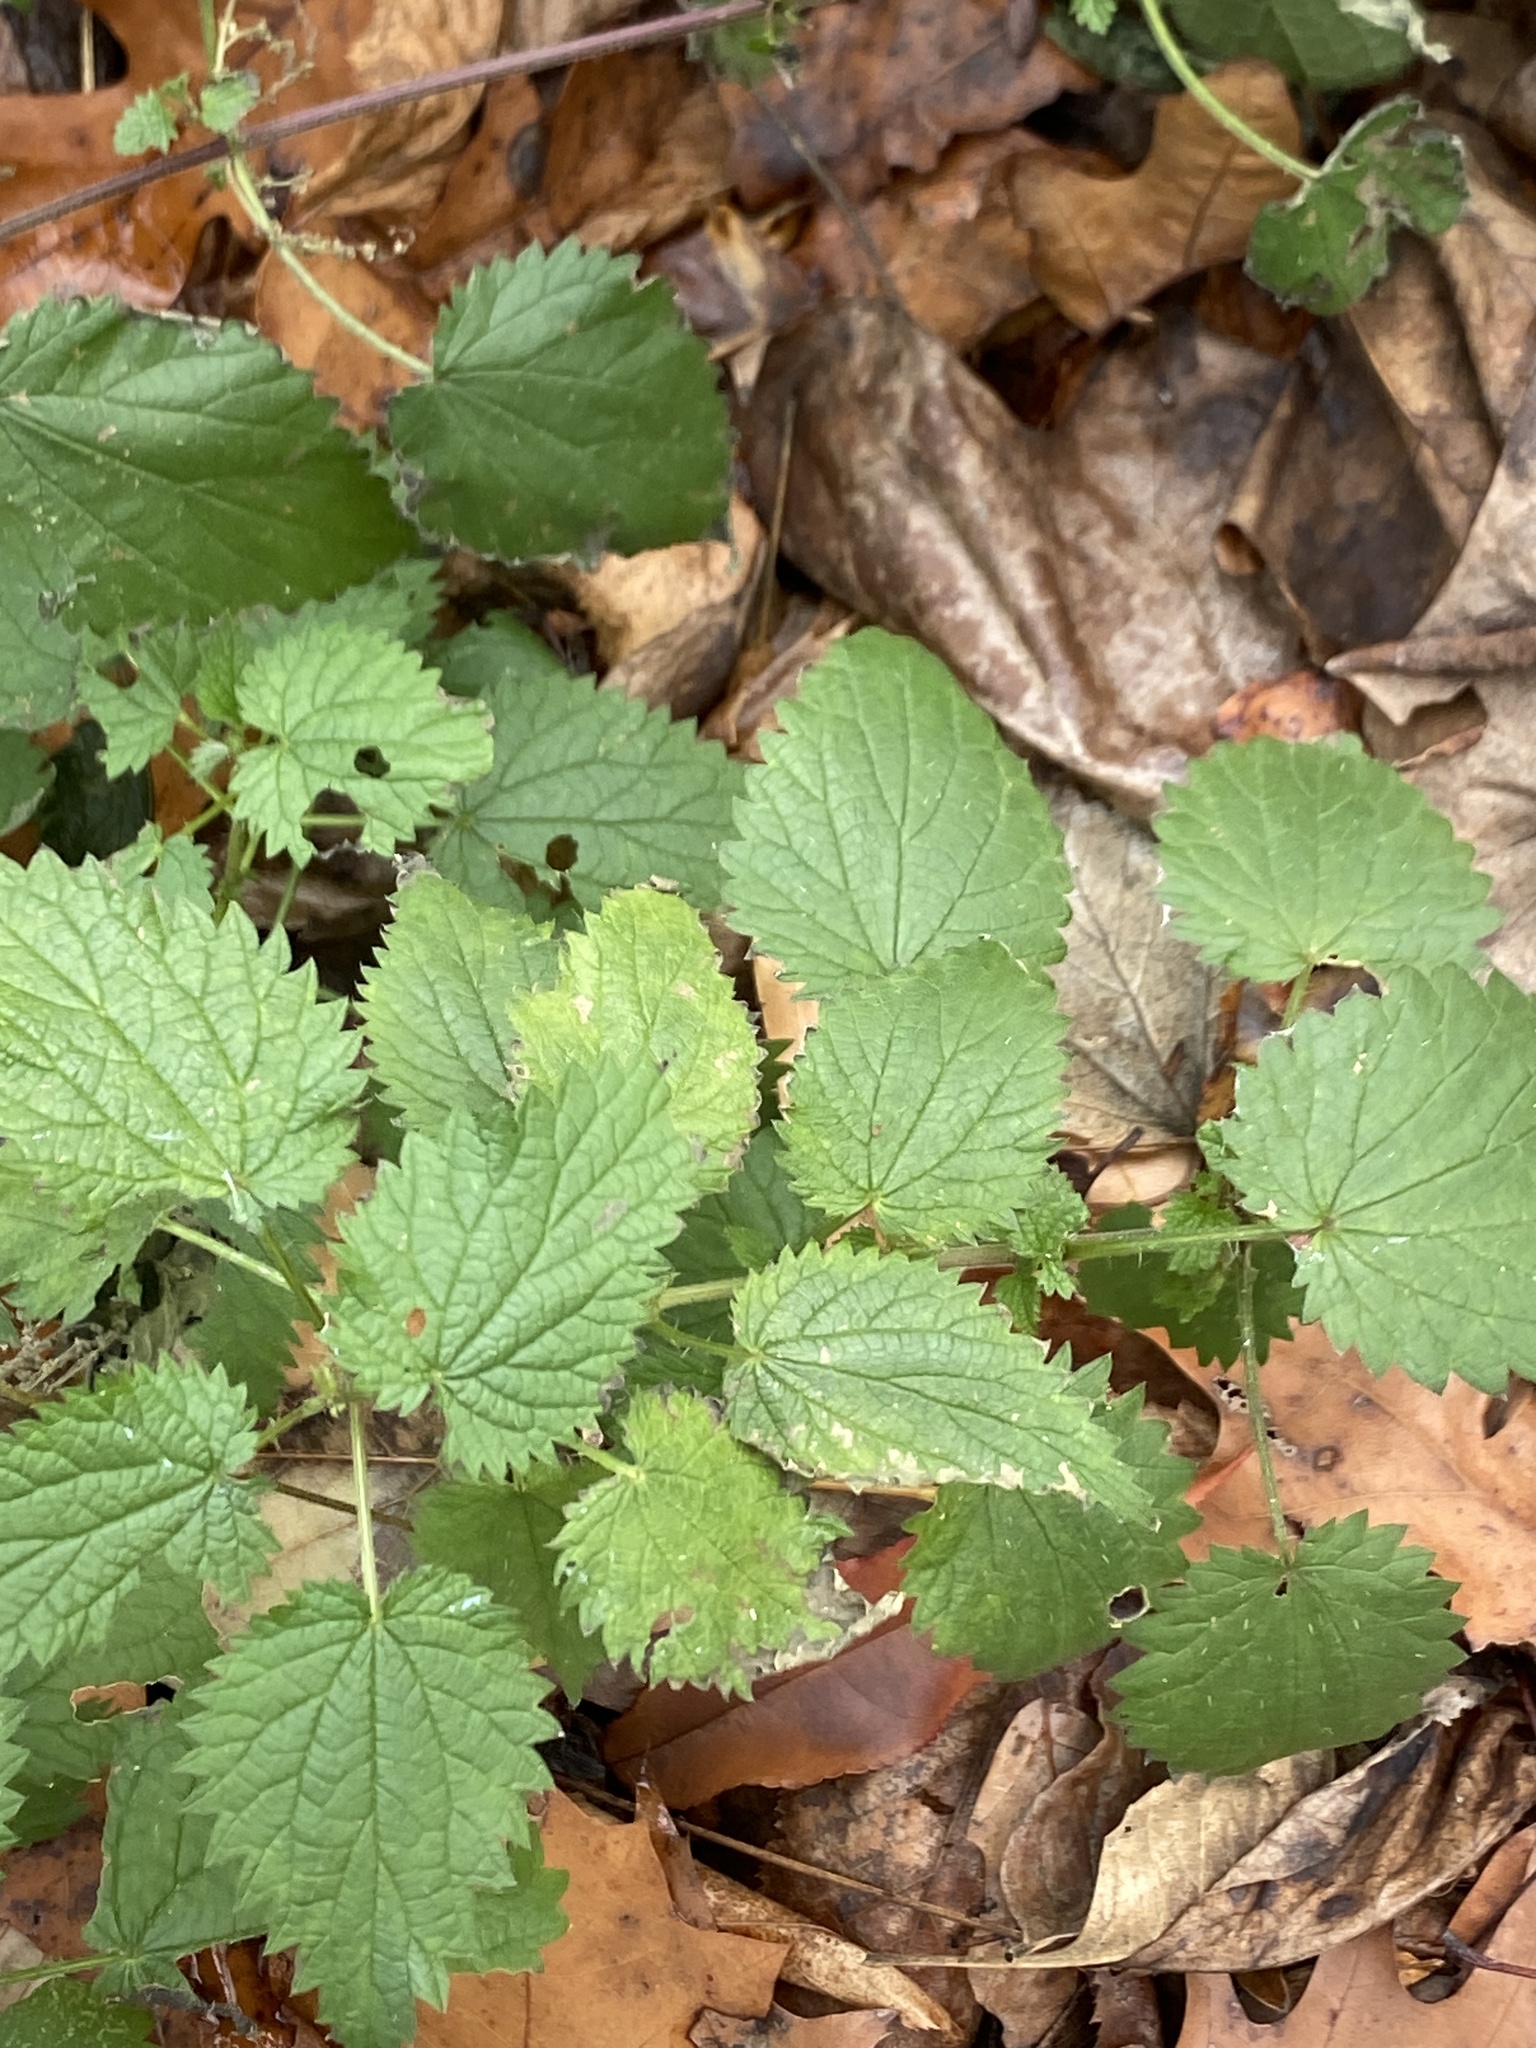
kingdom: Plantae
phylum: Tracheophyta
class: Magnoliopsida
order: Rosales
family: Urticaceae
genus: Urtica
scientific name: Urtica dioica
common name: Common nettle
